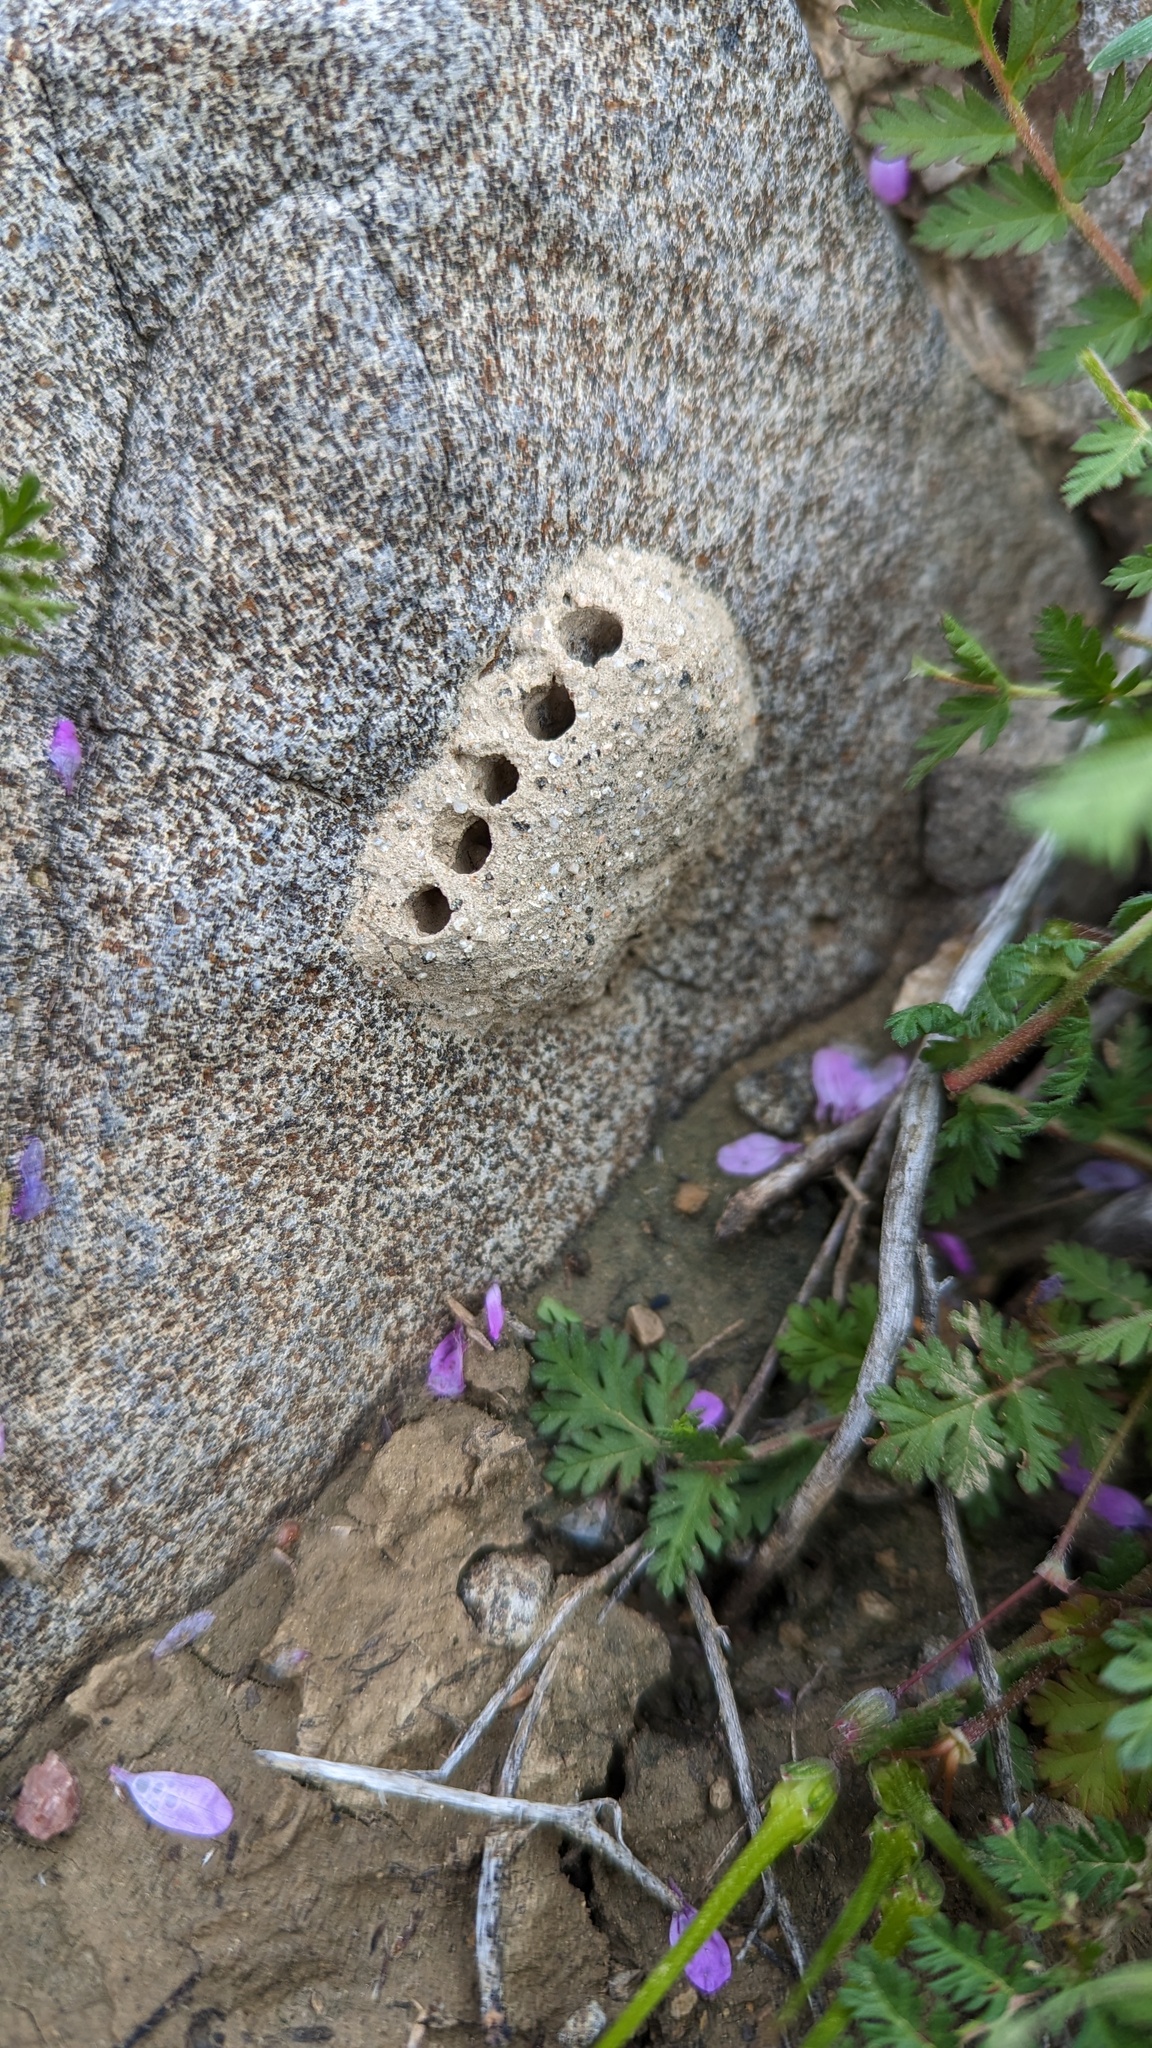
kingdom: Animalia
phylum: Arthropoda
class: Insecta
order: Hymenoptera
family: Masaridae
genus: Pseudomasaris
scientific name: Pseudomasaris
